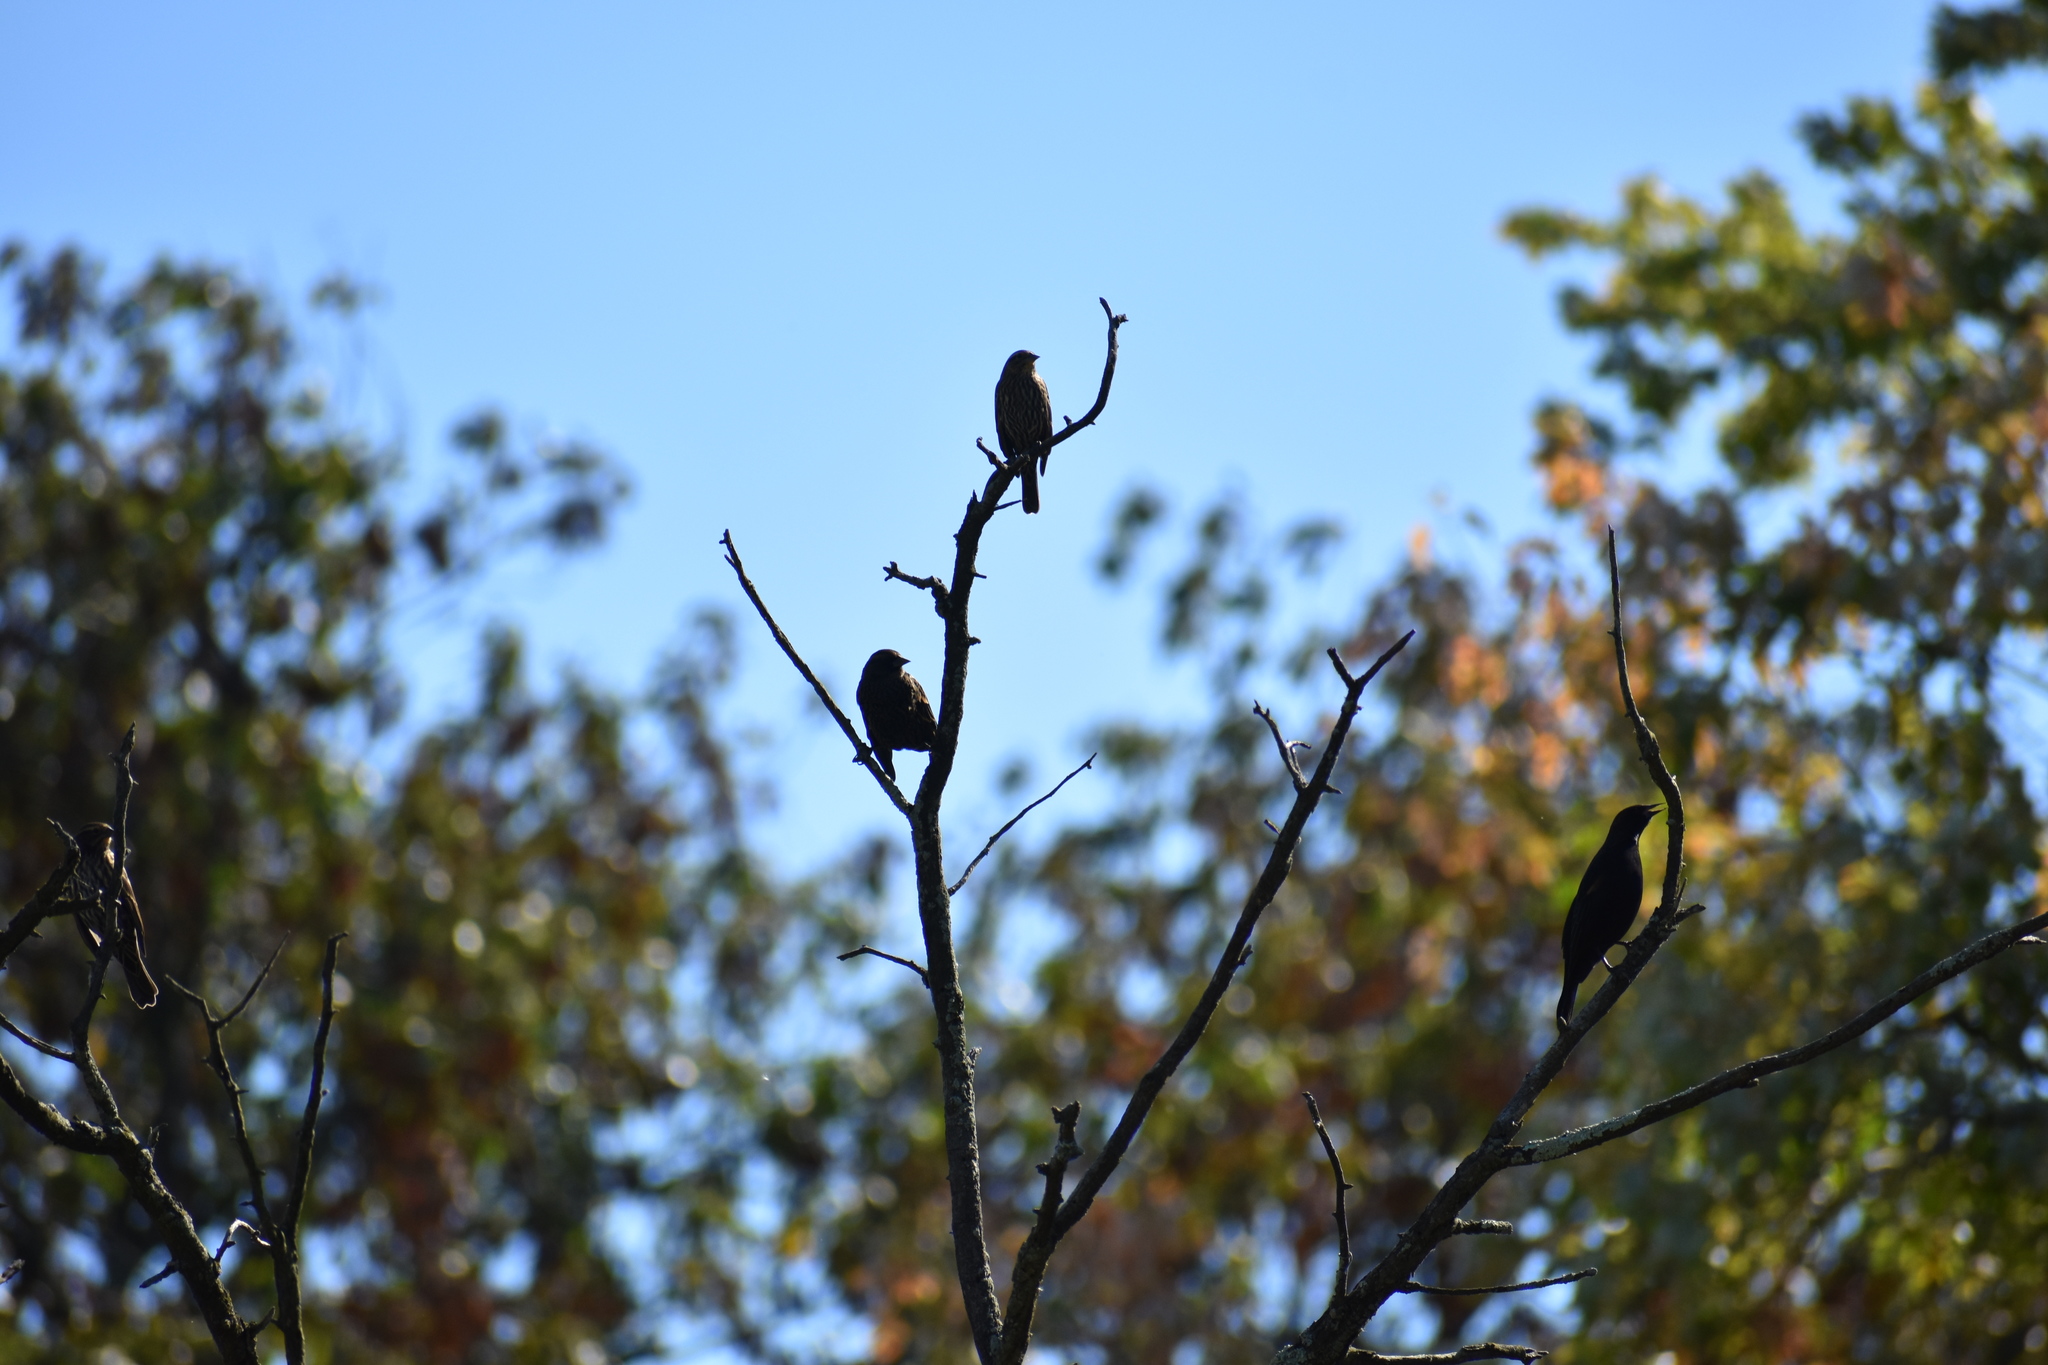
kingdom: Animalia
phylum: Chordata
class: Aves
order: Passeriformes
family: Icteridae
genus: Agelaius
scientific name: Agelaius phoeniceus
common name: Red-winged blackbird
